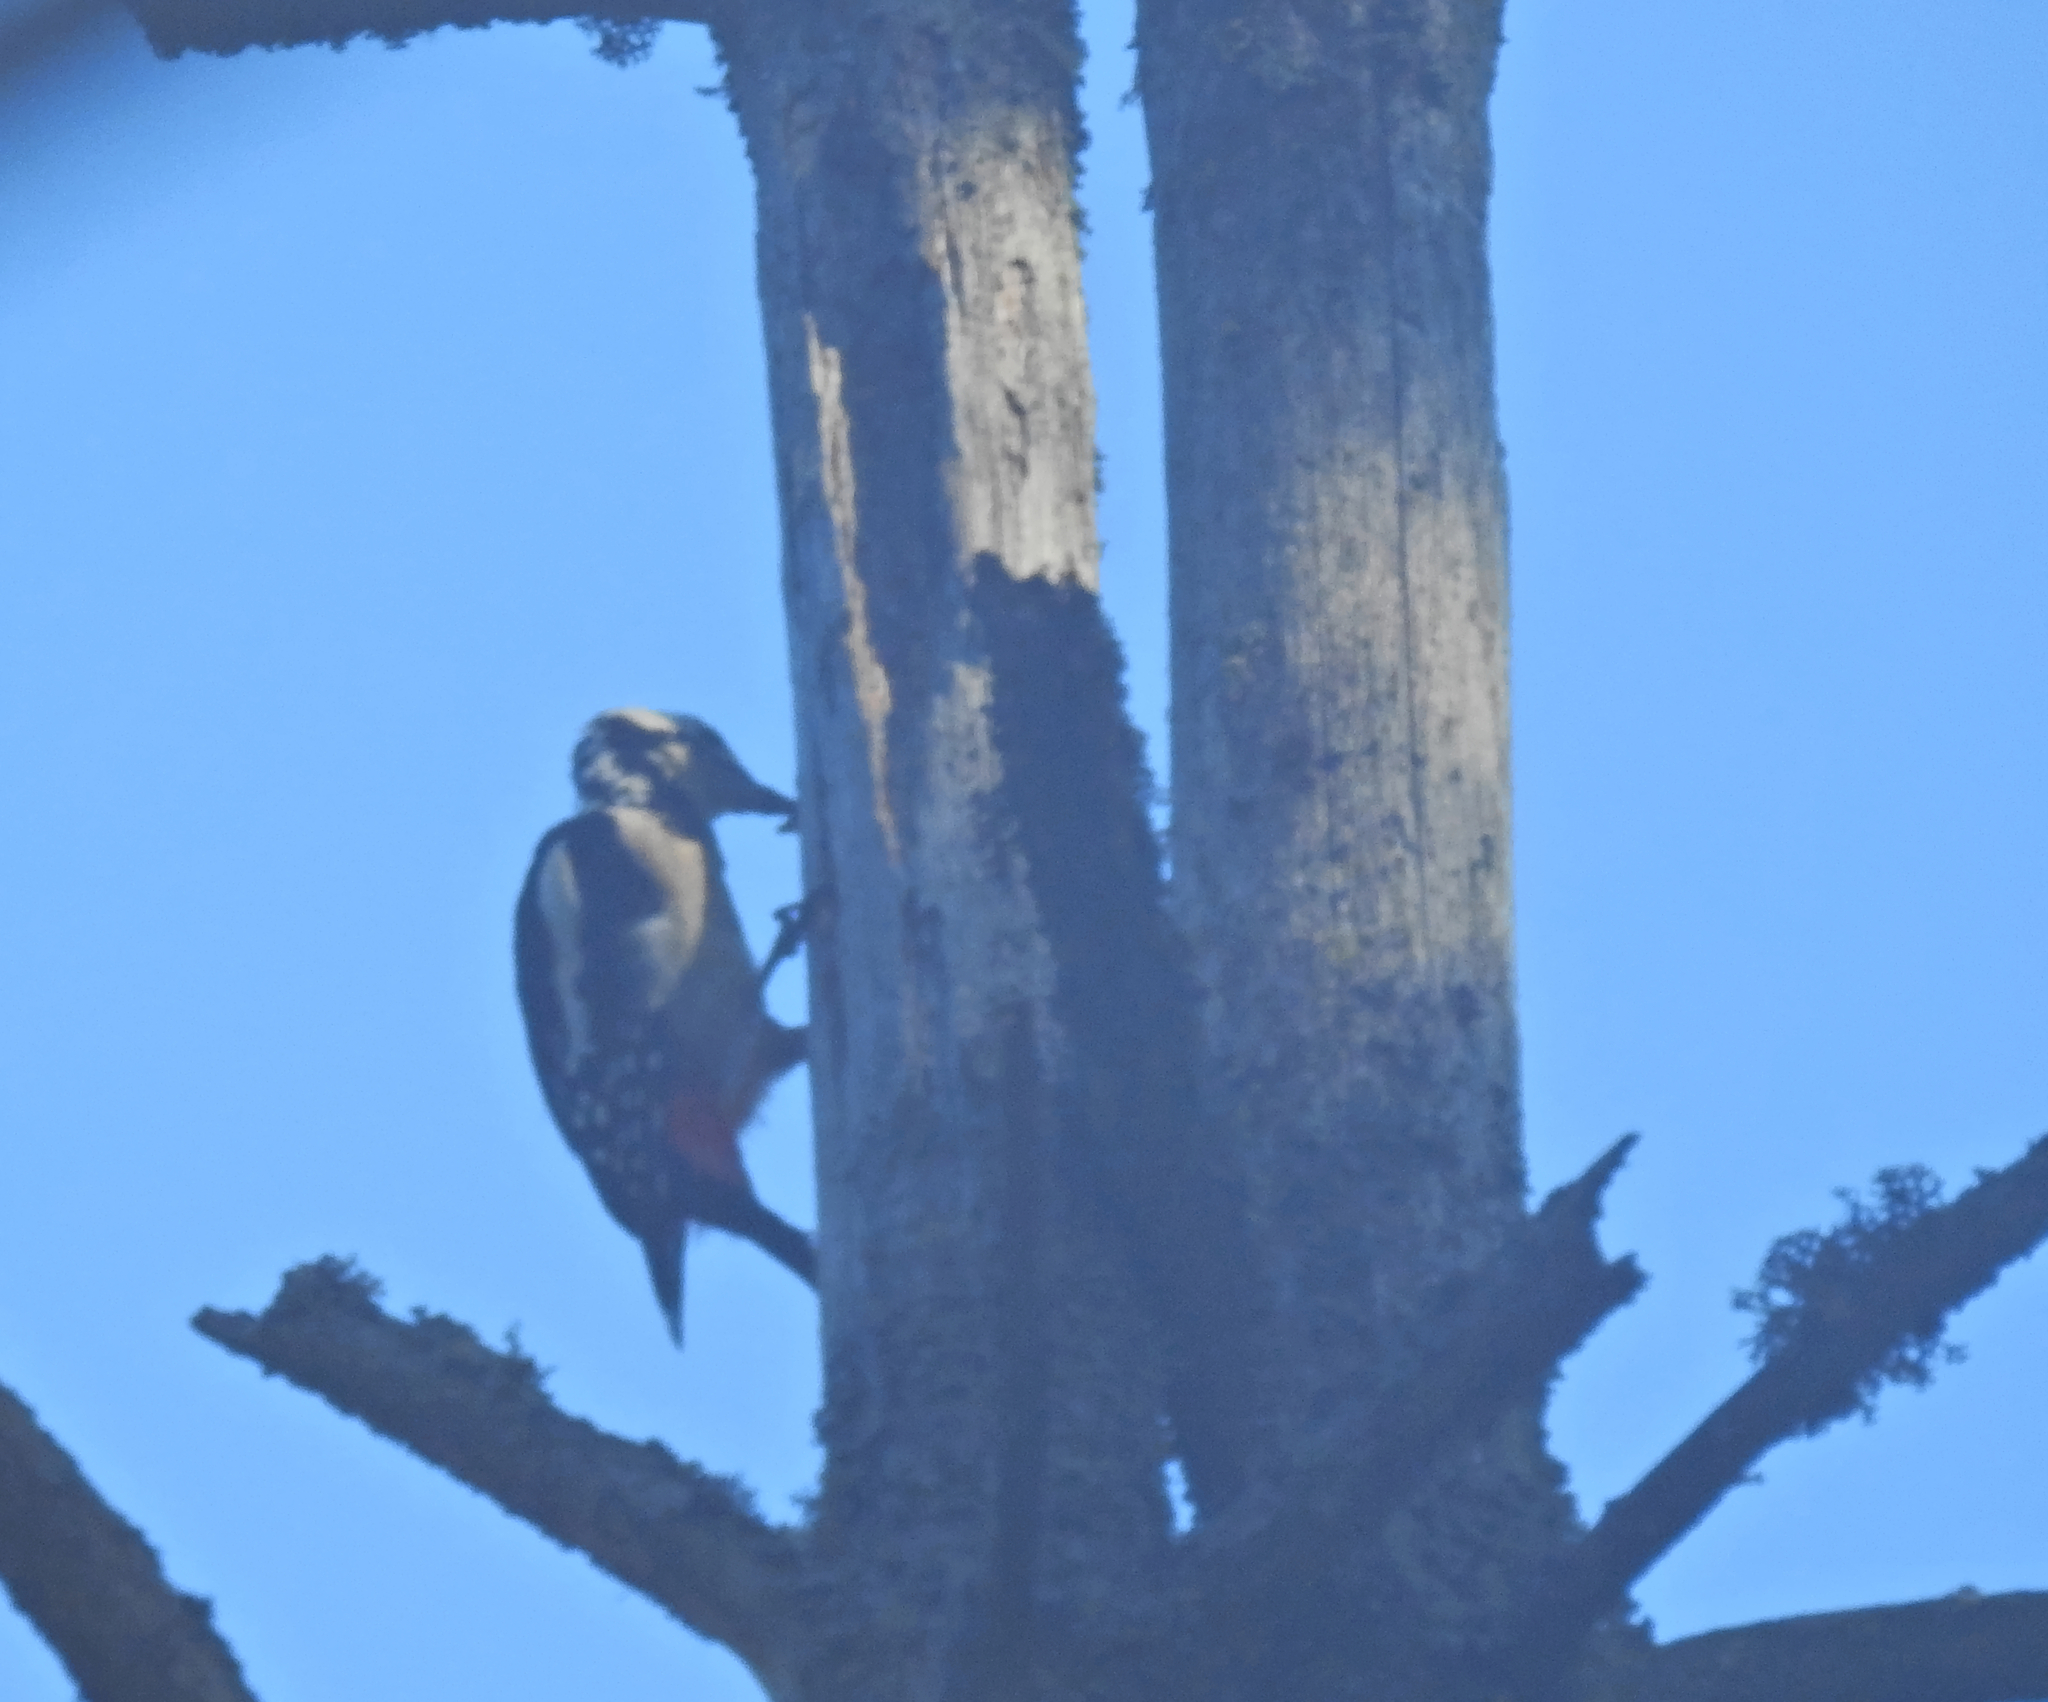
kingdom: Animalia
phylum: Chordata
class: Aves
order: Piciformes
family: Picidae
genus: Dendrocopos
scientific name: Dendrocopos major
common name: Great spotted woodpecker
